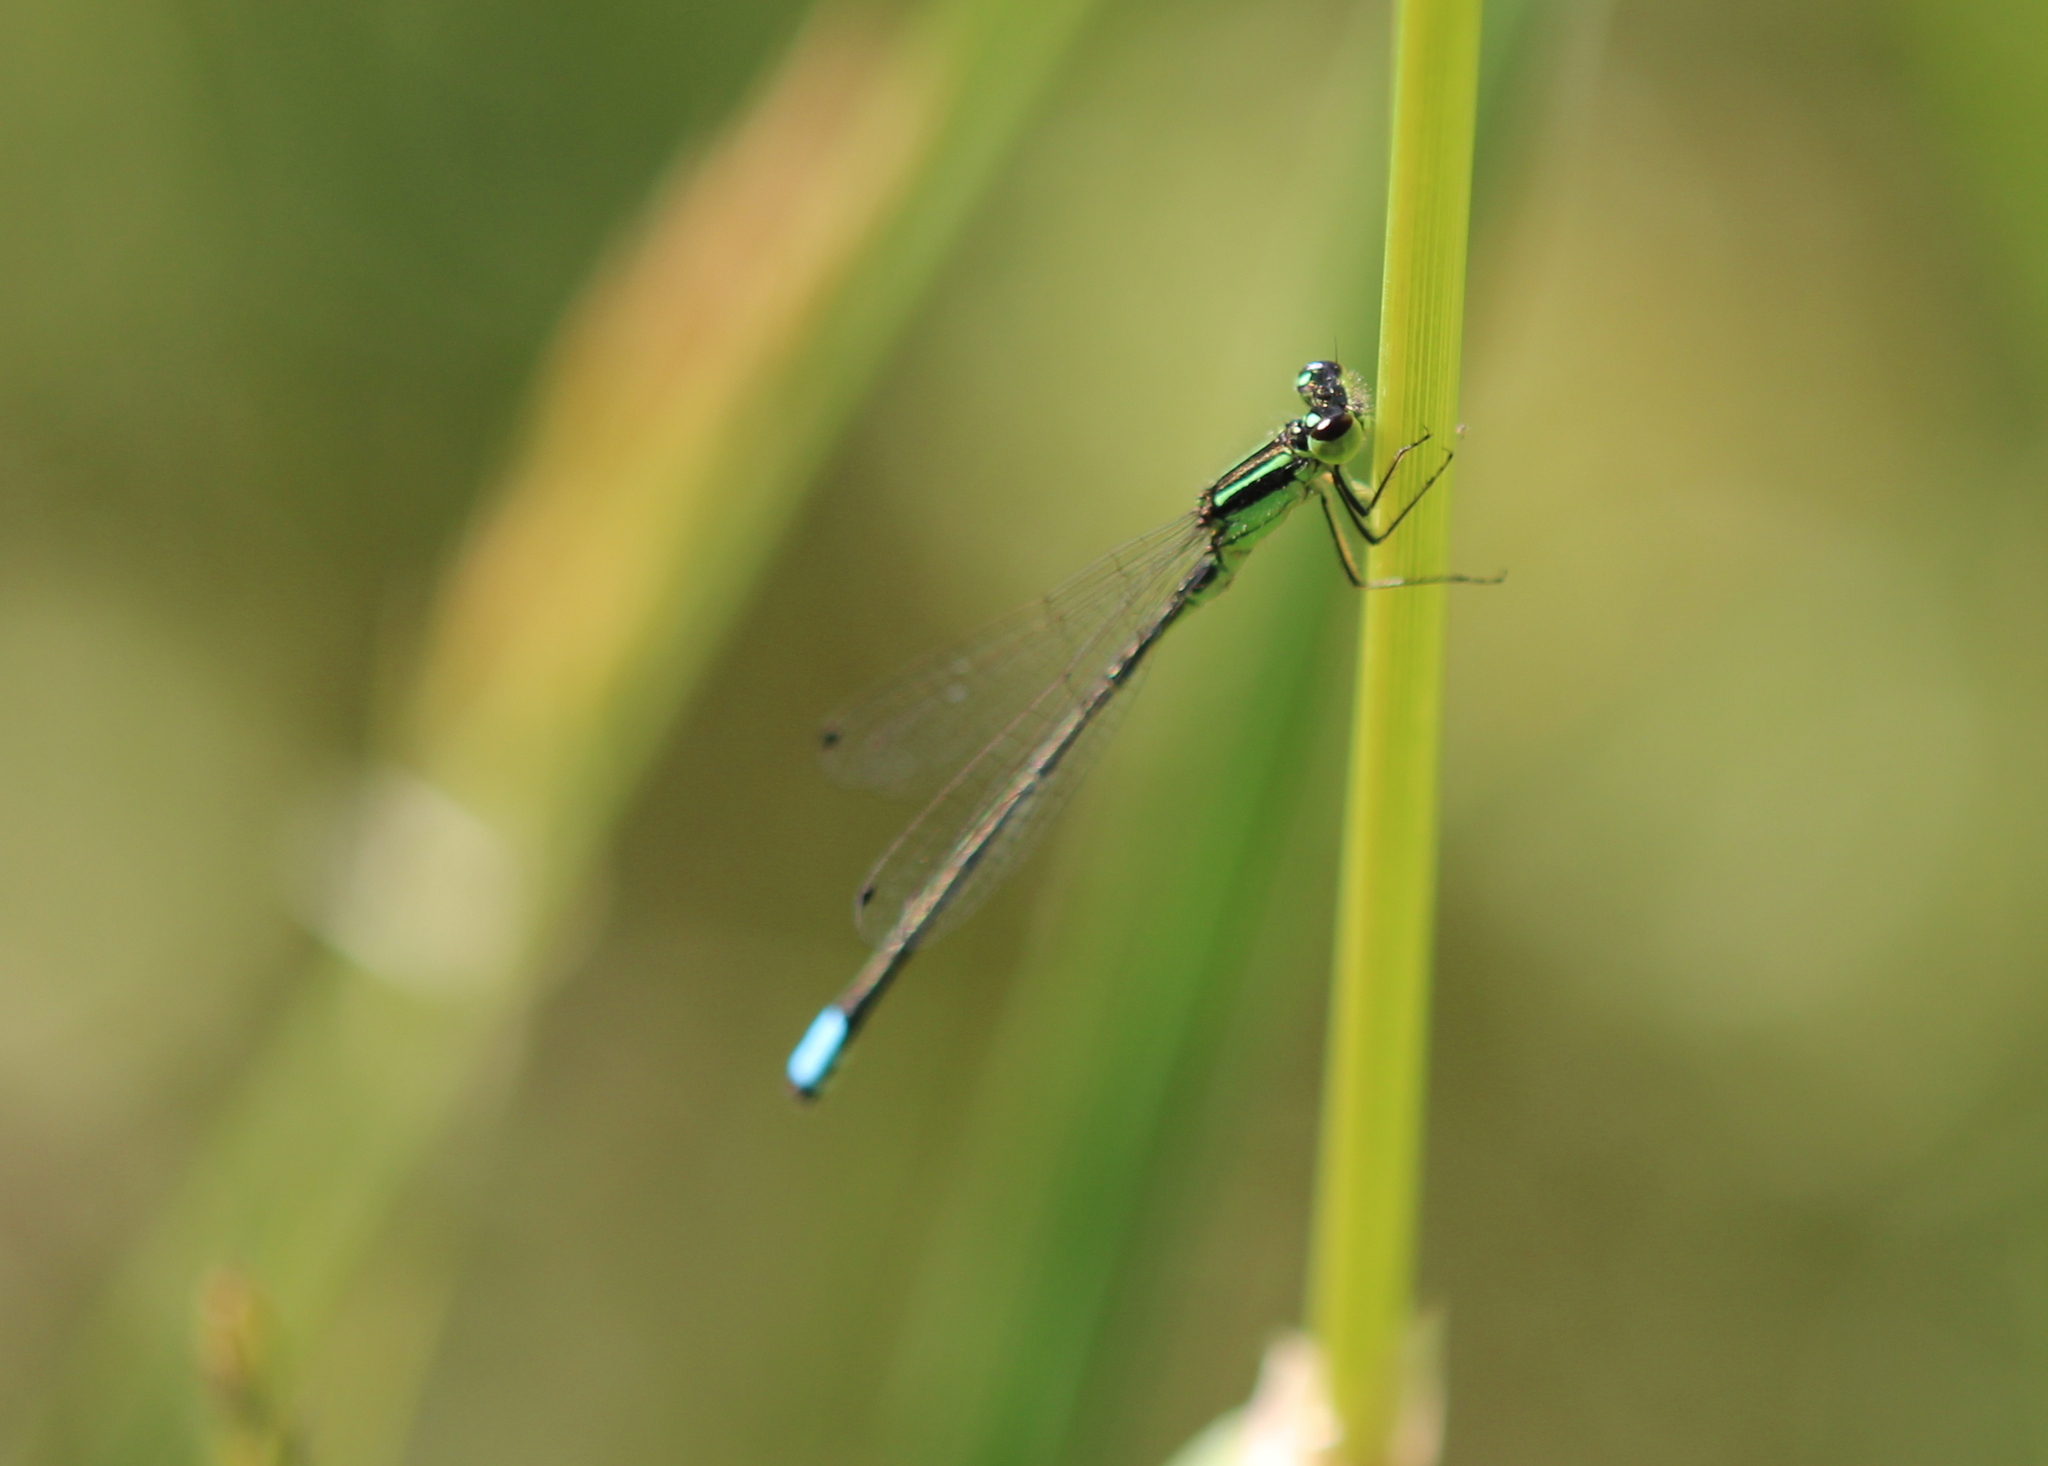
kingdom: Animalia
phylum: Arthropoda
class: Insecta
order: Odonata
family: Coenagrionidae
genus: Ischnura
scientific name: Ischnura verticalis
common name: Eastern forktail
